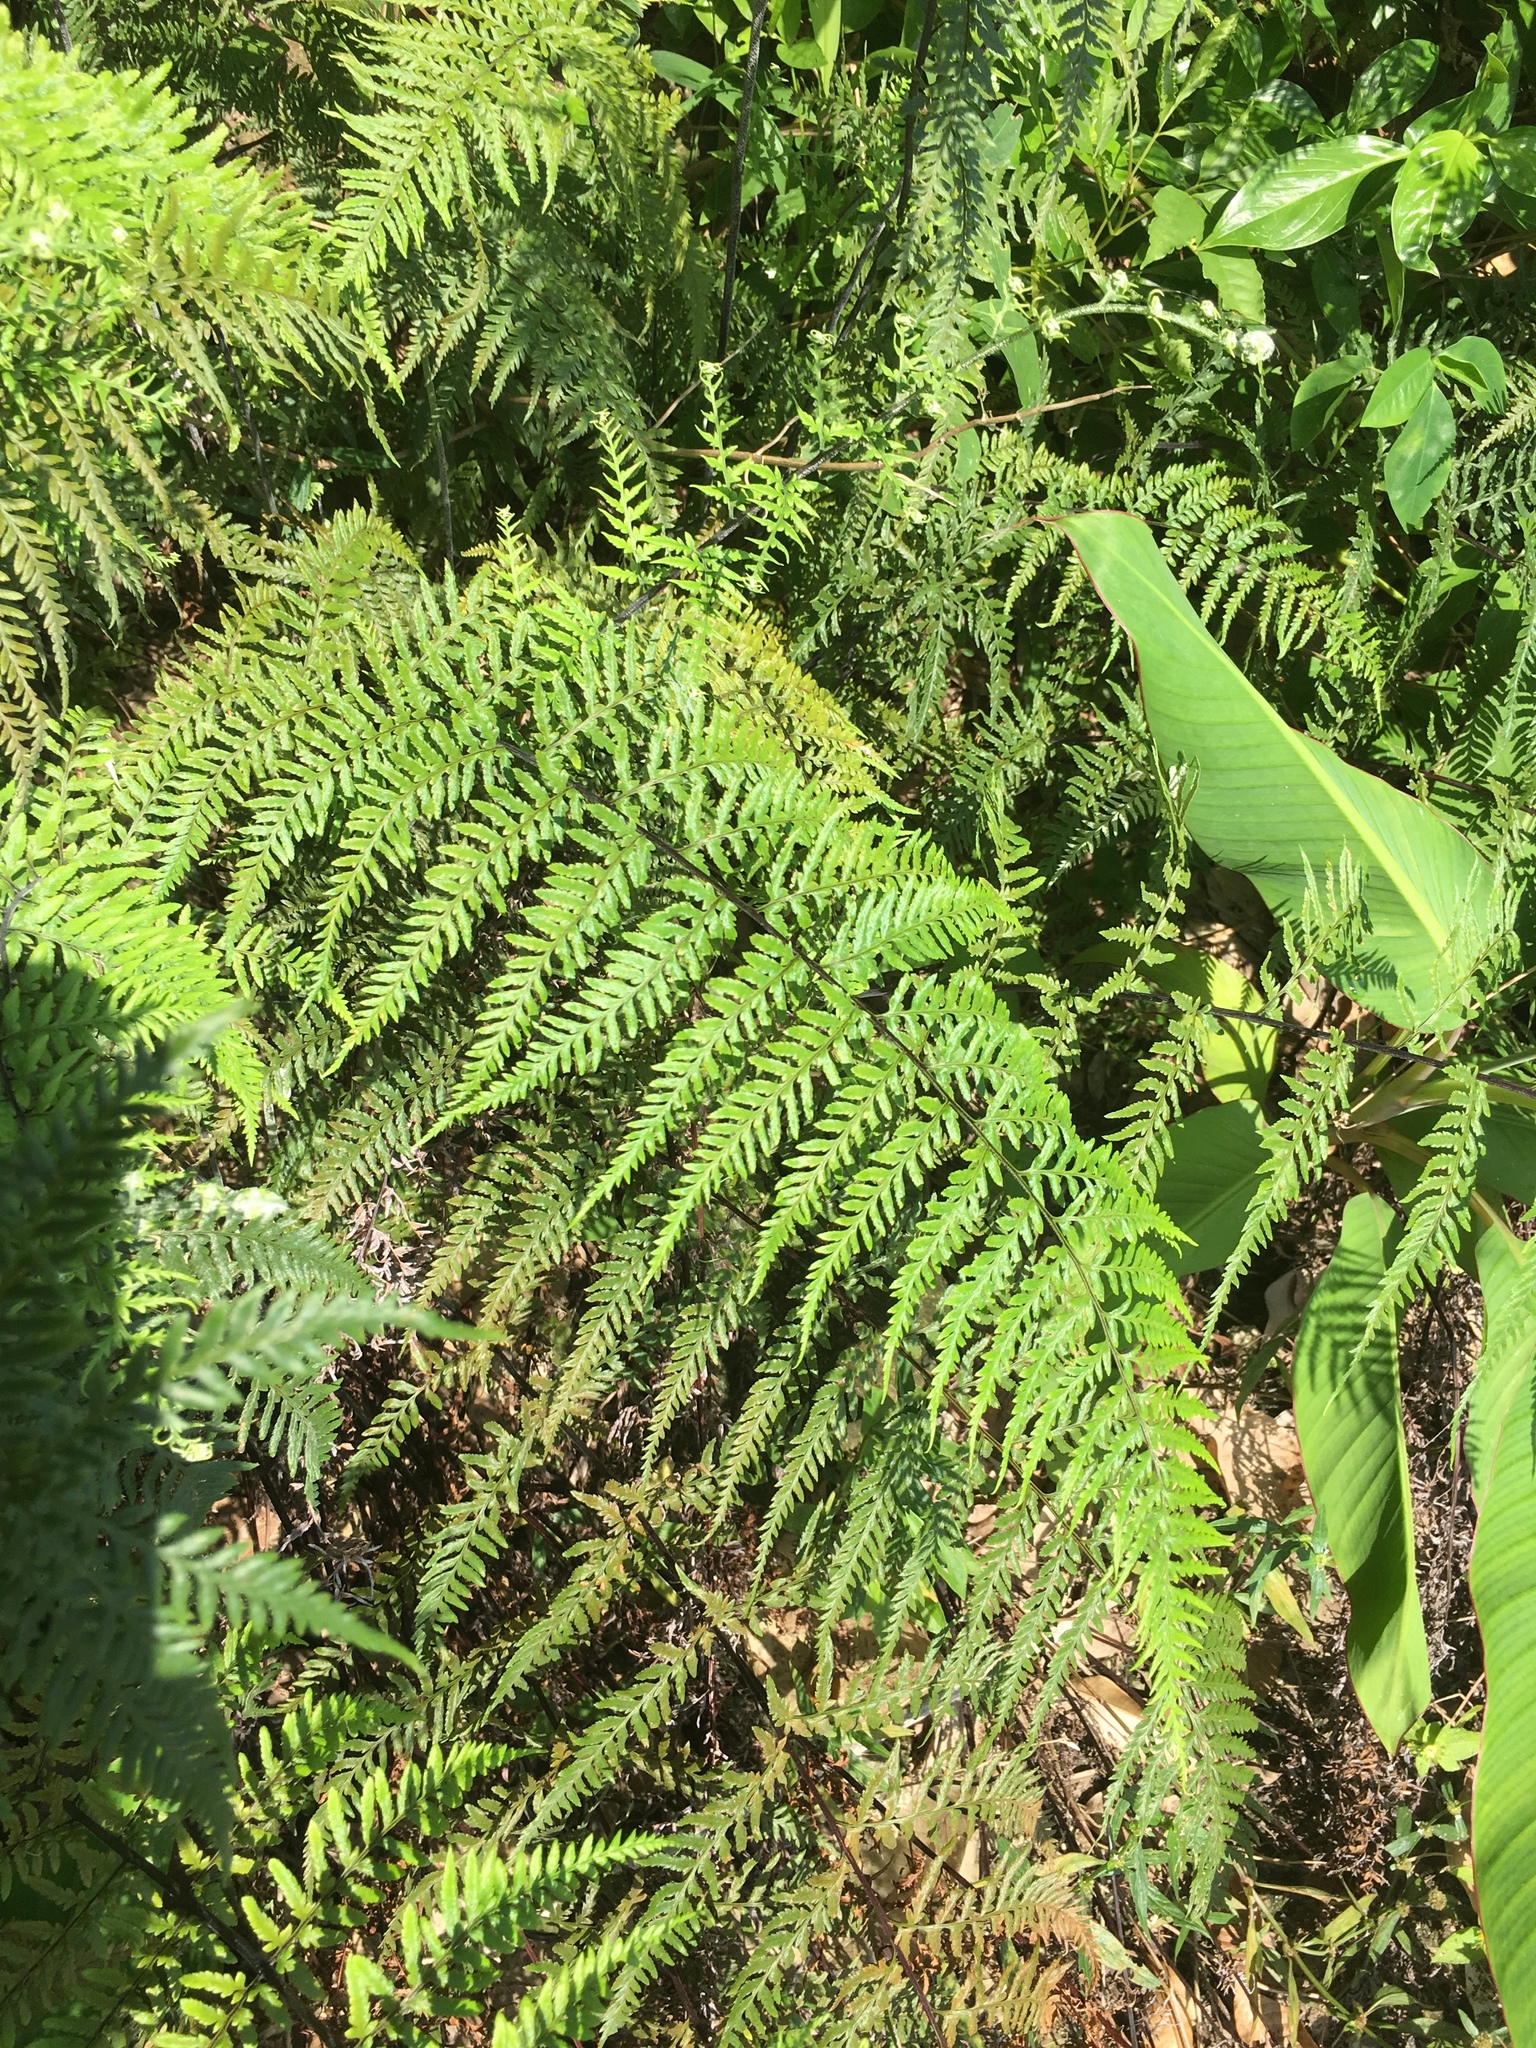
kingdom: Plantae
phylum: Tracheophyta
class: Polypodiopsida
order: Polypodiales
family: Pteridaceae
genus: Pityrogramma
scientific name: Pityrogramma calomelanos
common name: Dixie silverback fern
